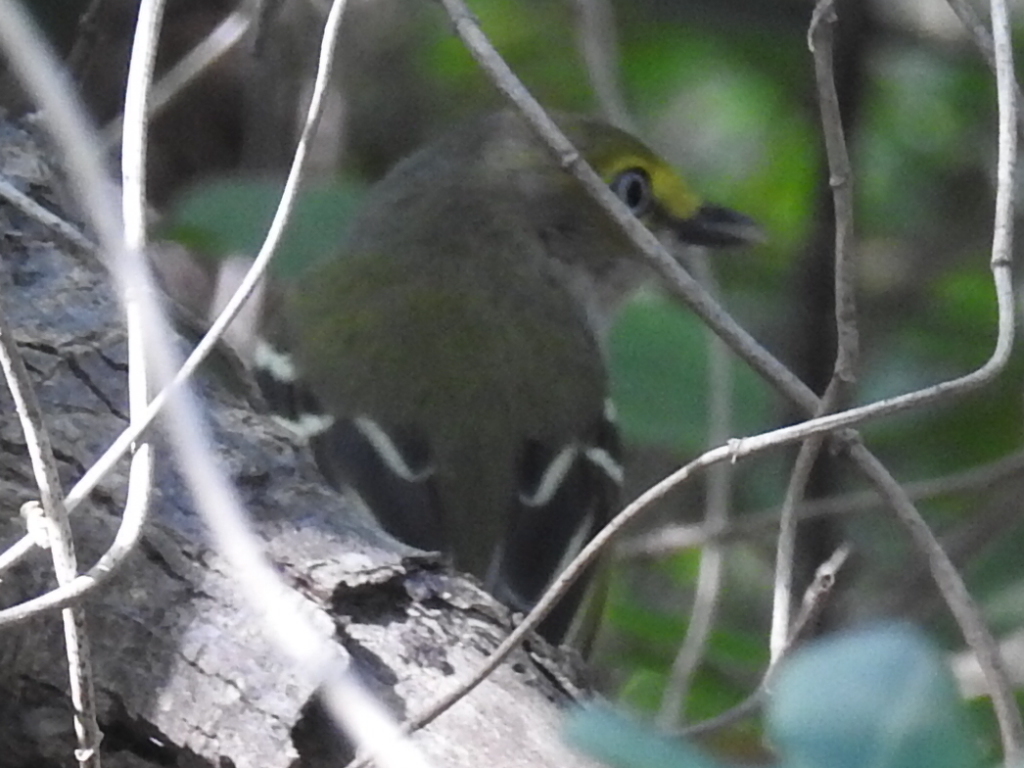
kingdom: Animalia
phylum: Chordata
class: Aves
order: Passeriformes
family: Vireonidae
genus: Vireo
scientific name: Vireo griseus
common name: White-eyed vireo
